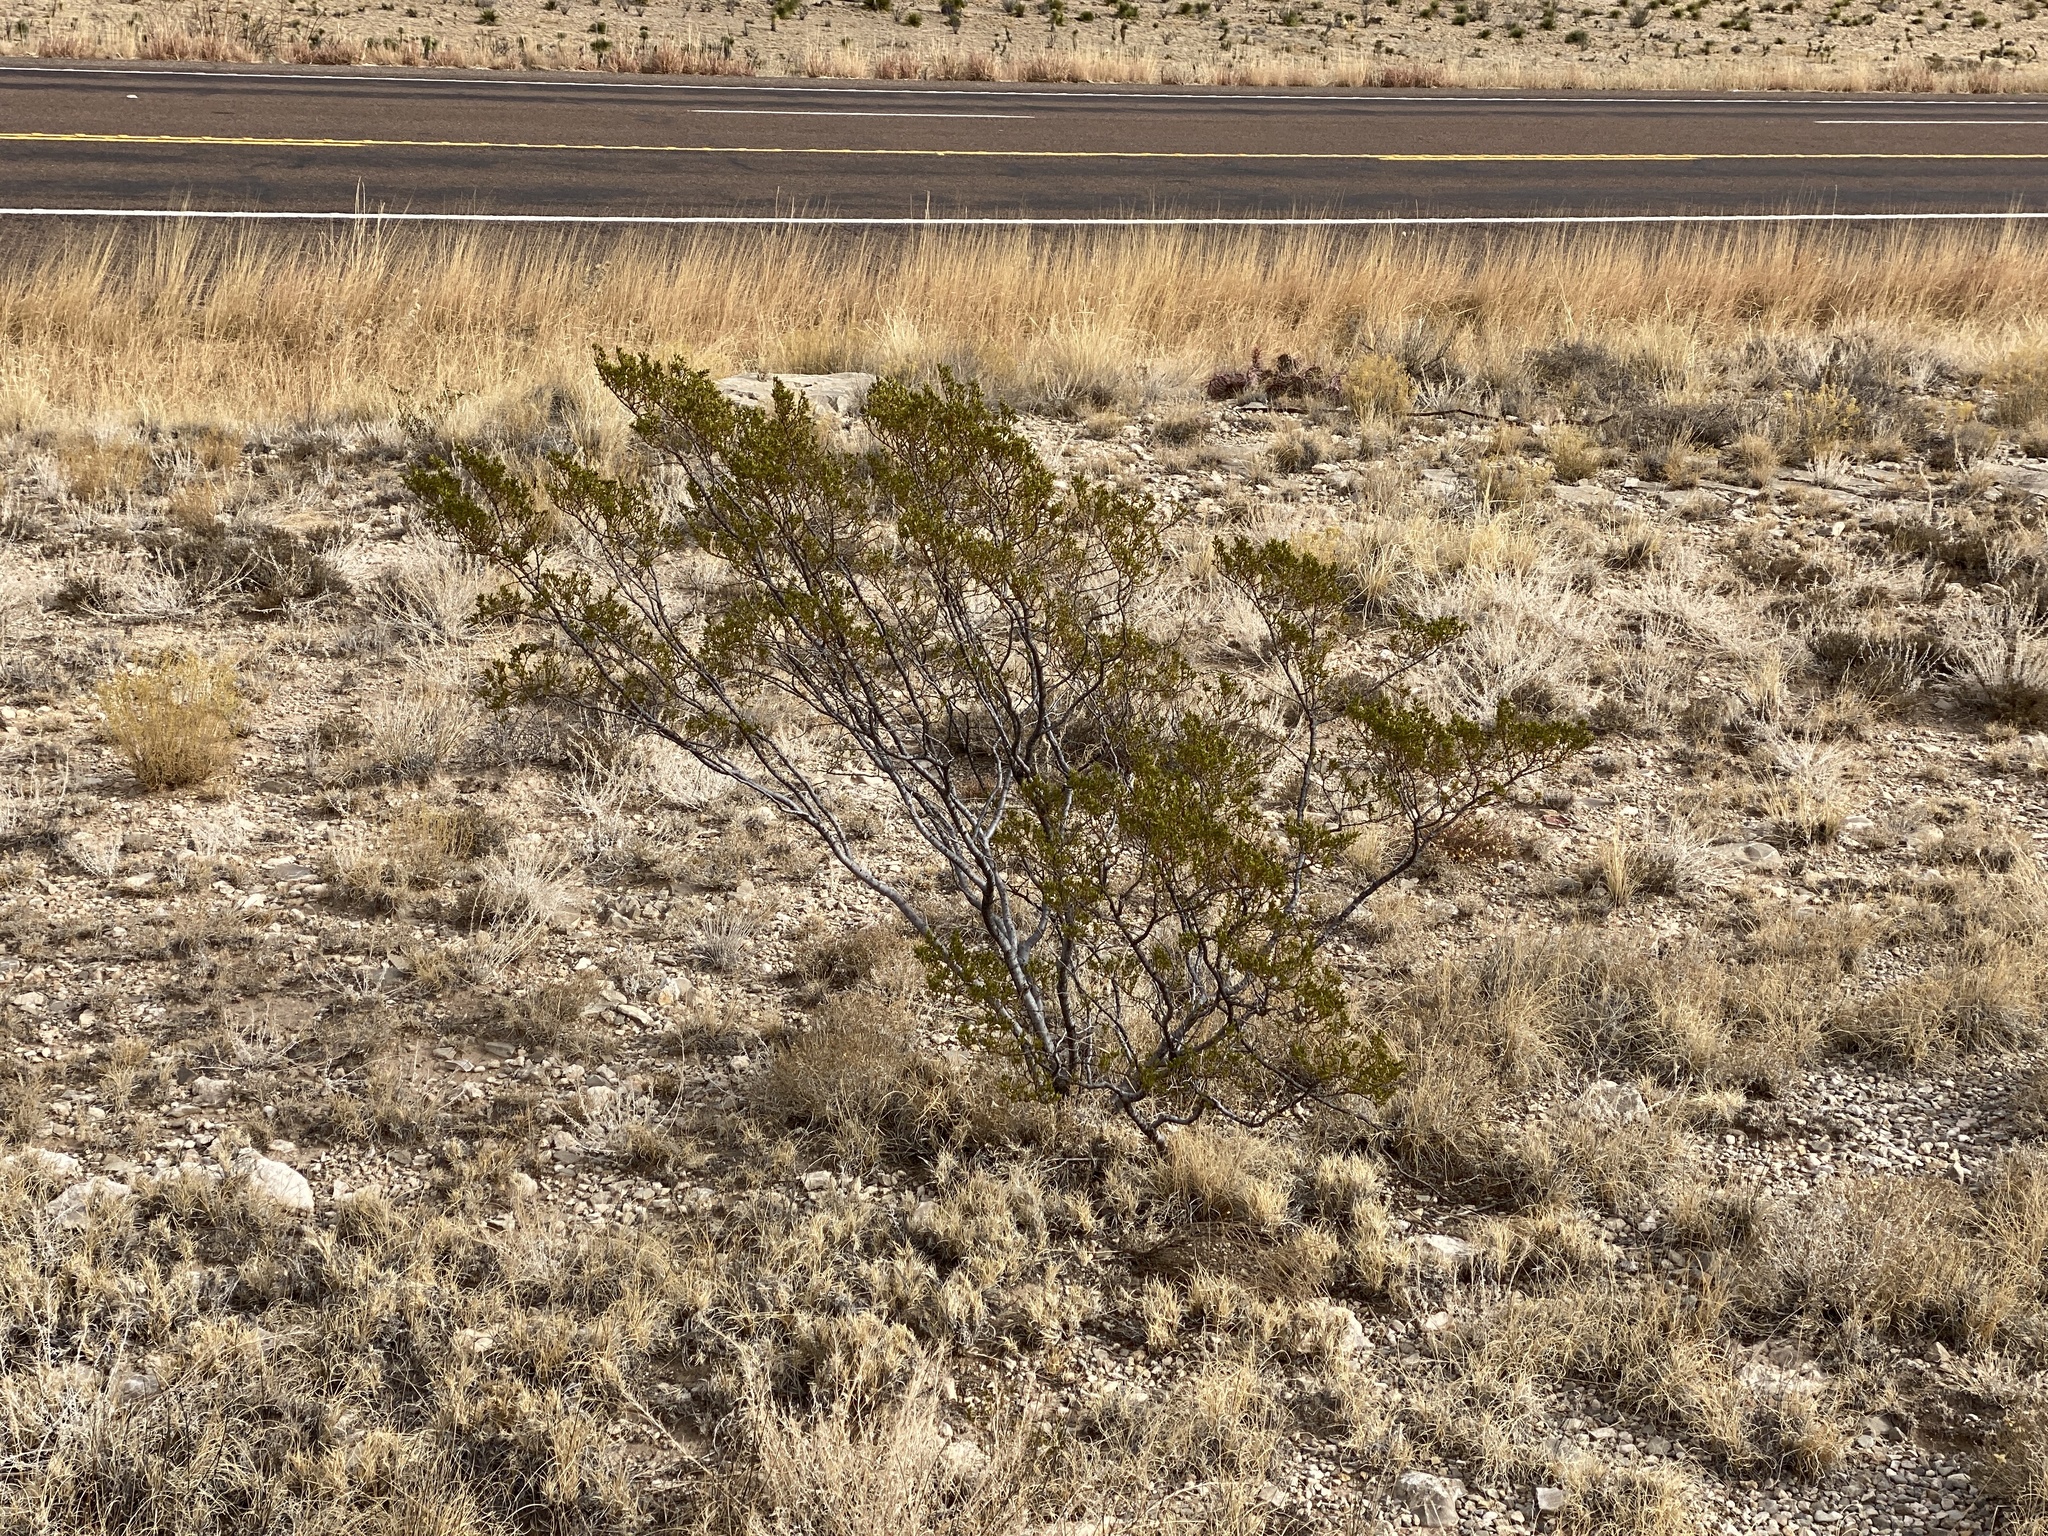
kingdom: Plantae
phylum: Tracheophyta
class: Magnoliopsida
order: Zygophyllales
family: Zygophyllaceae
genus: Larrea
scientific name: Larrea tridentata
